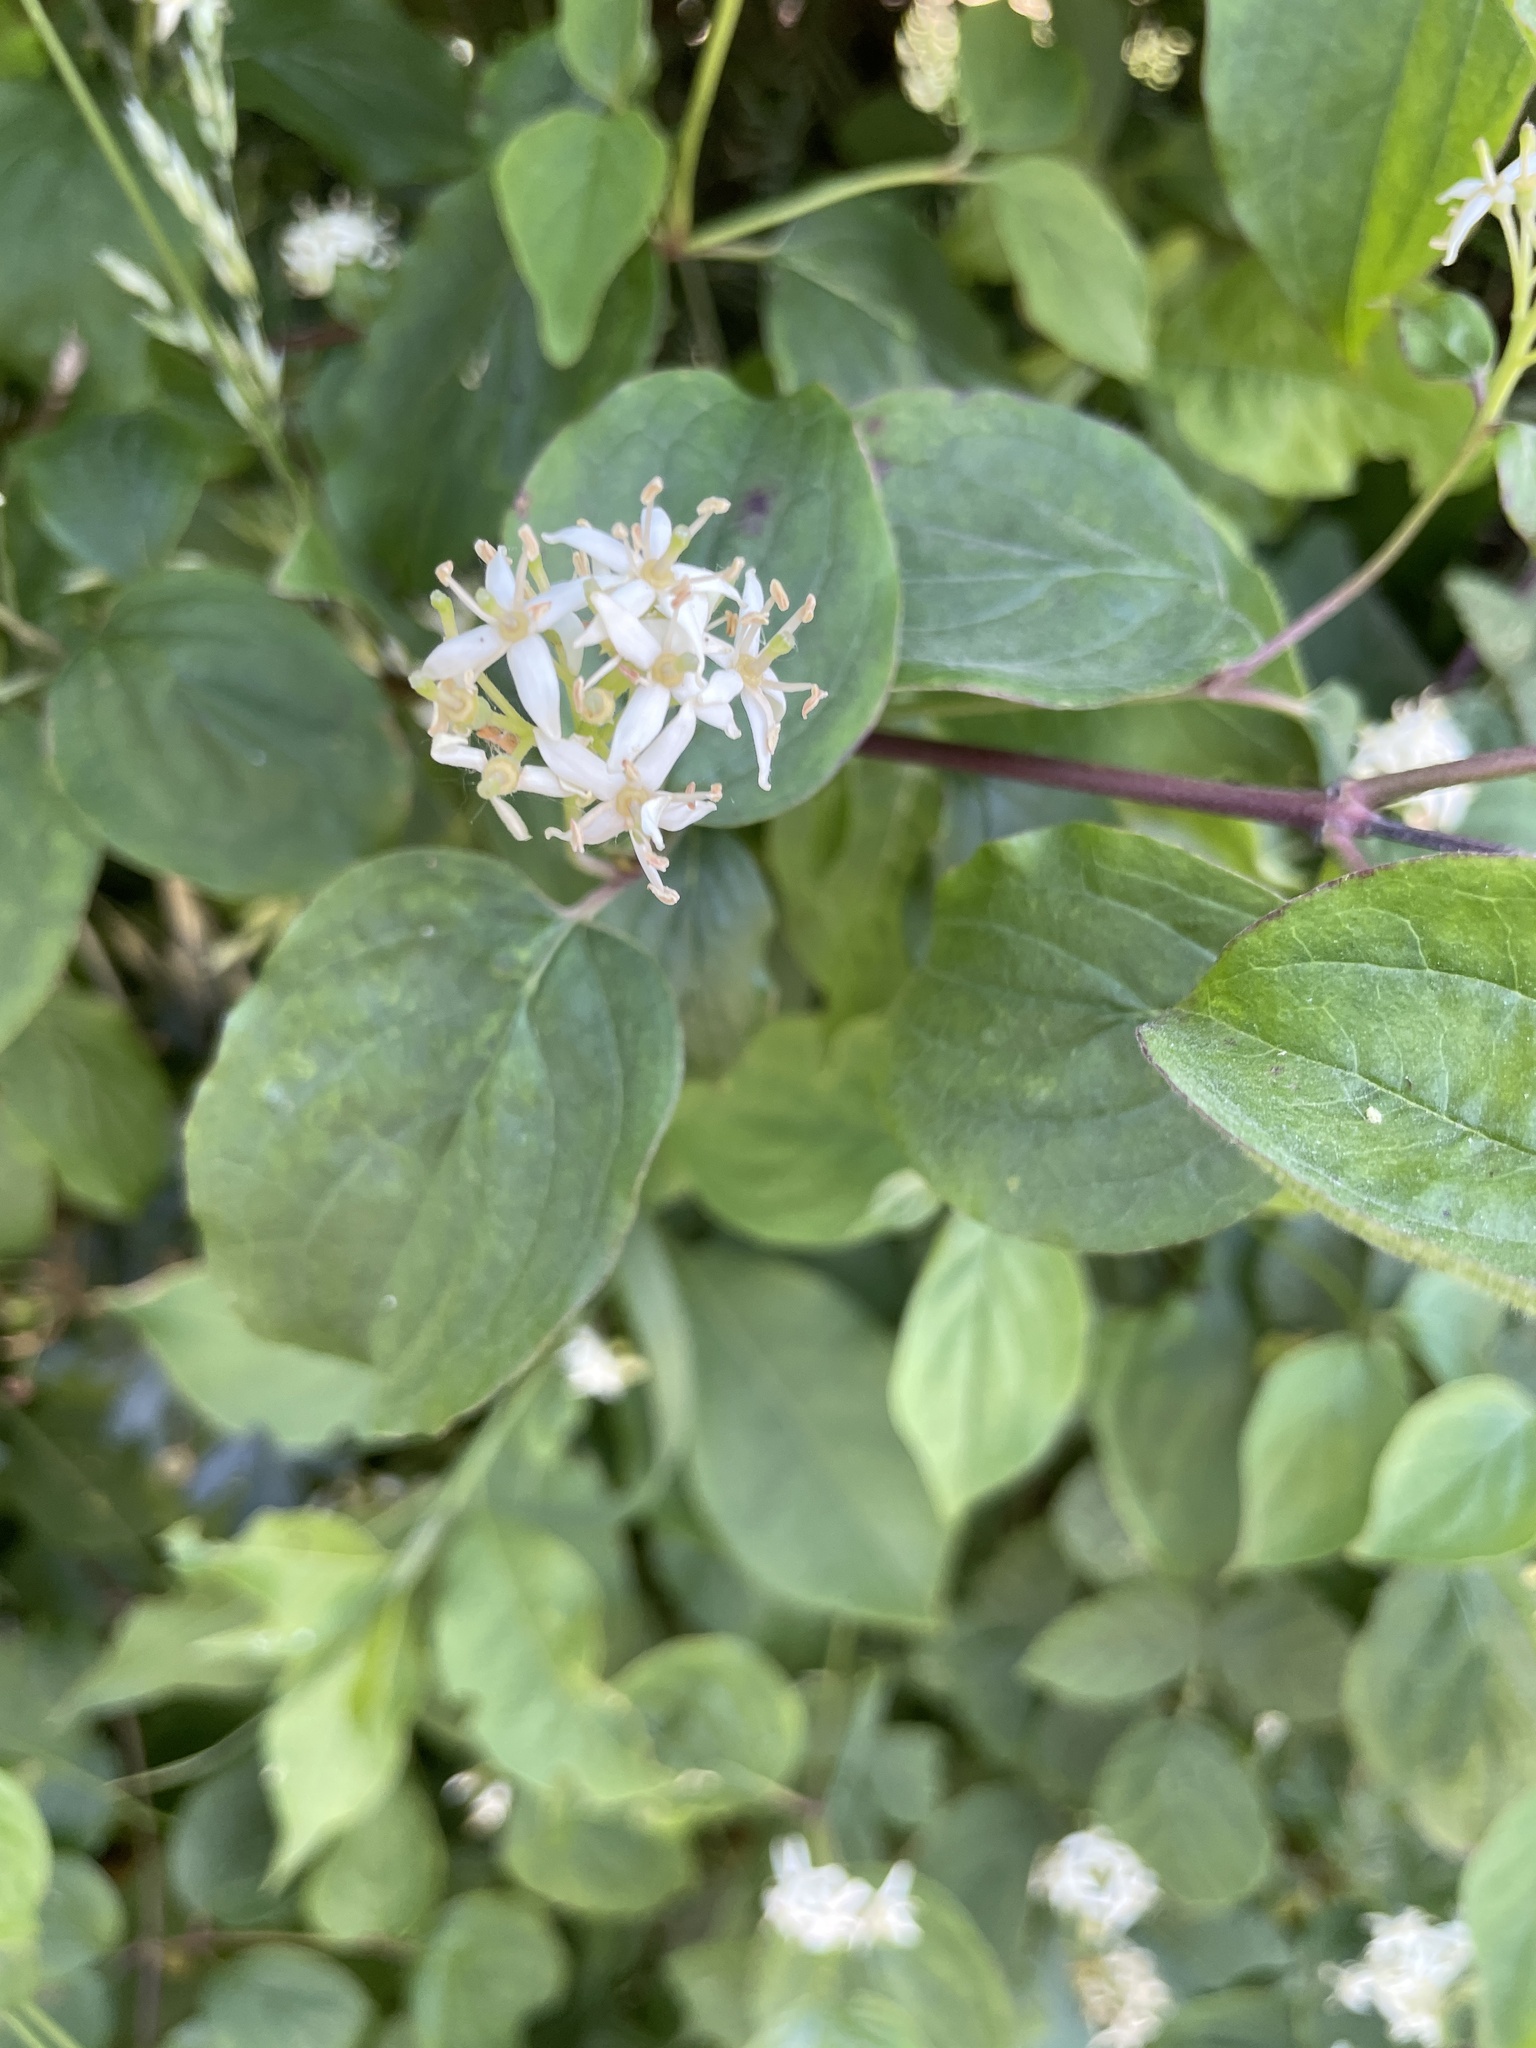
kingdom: Plantae
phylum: Tracheophyta
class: Magnoliopsida
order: Cornales
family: Cornaceae
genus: Cornus
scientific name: Cornus sanguinea
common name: Dogwood
